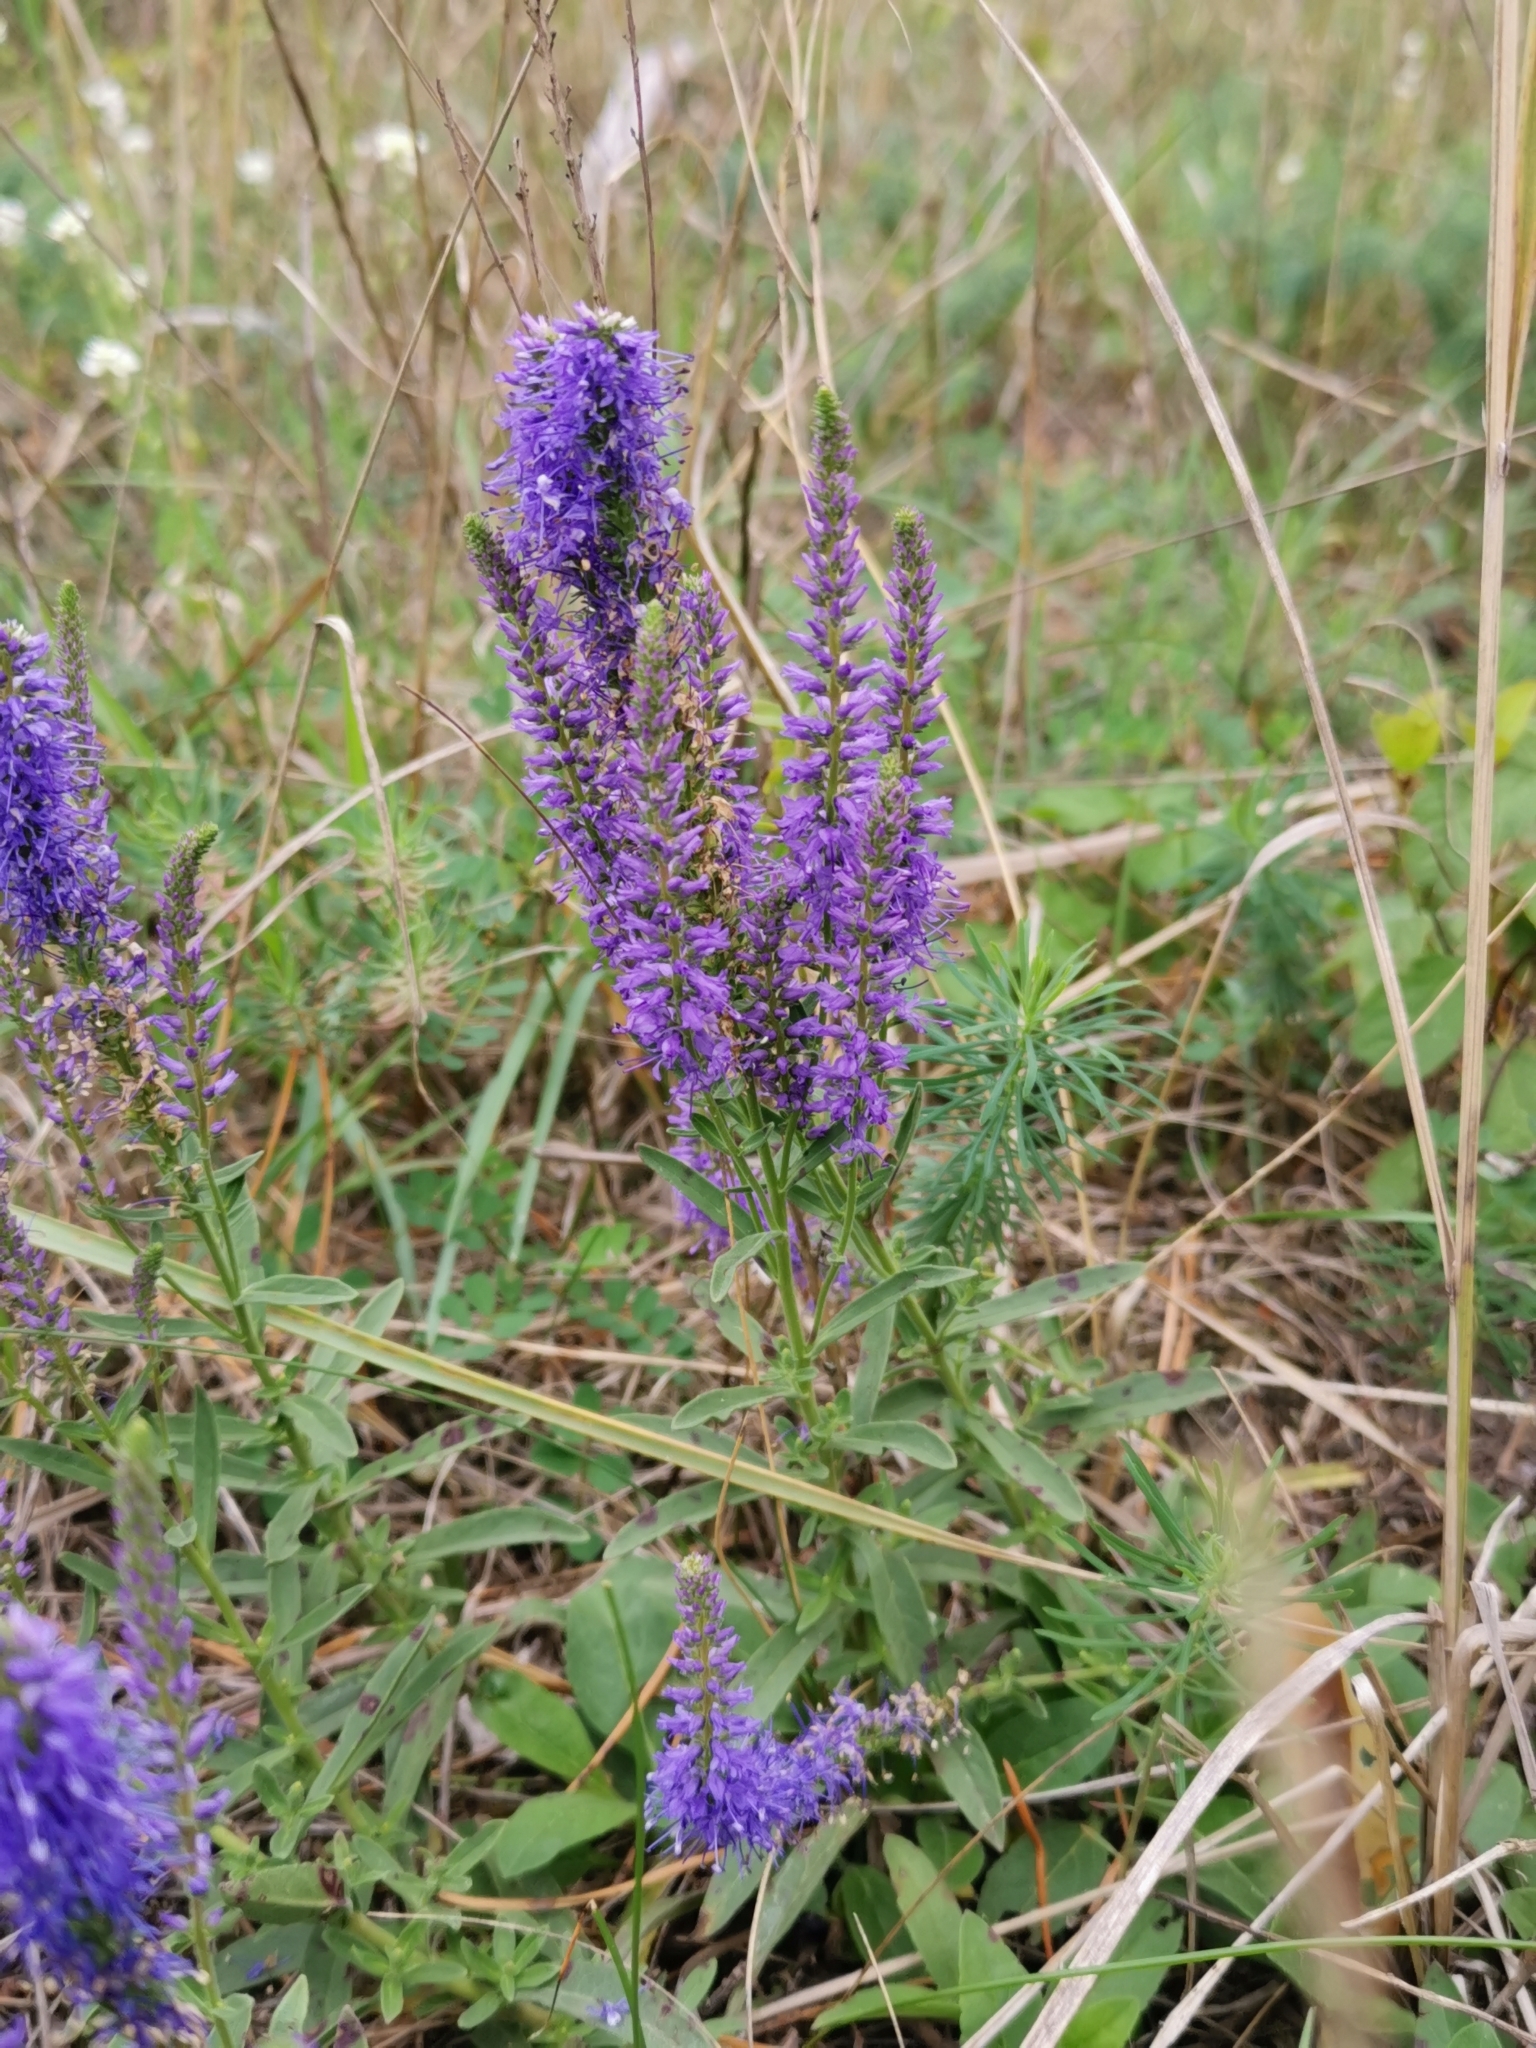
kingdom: Plantae
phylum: Tracheophyta
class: Magnoliopsida
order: Lamiales
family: Plantaginaceae
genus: Veronica
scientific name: Veronica spicata
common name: Spiked speedwell
